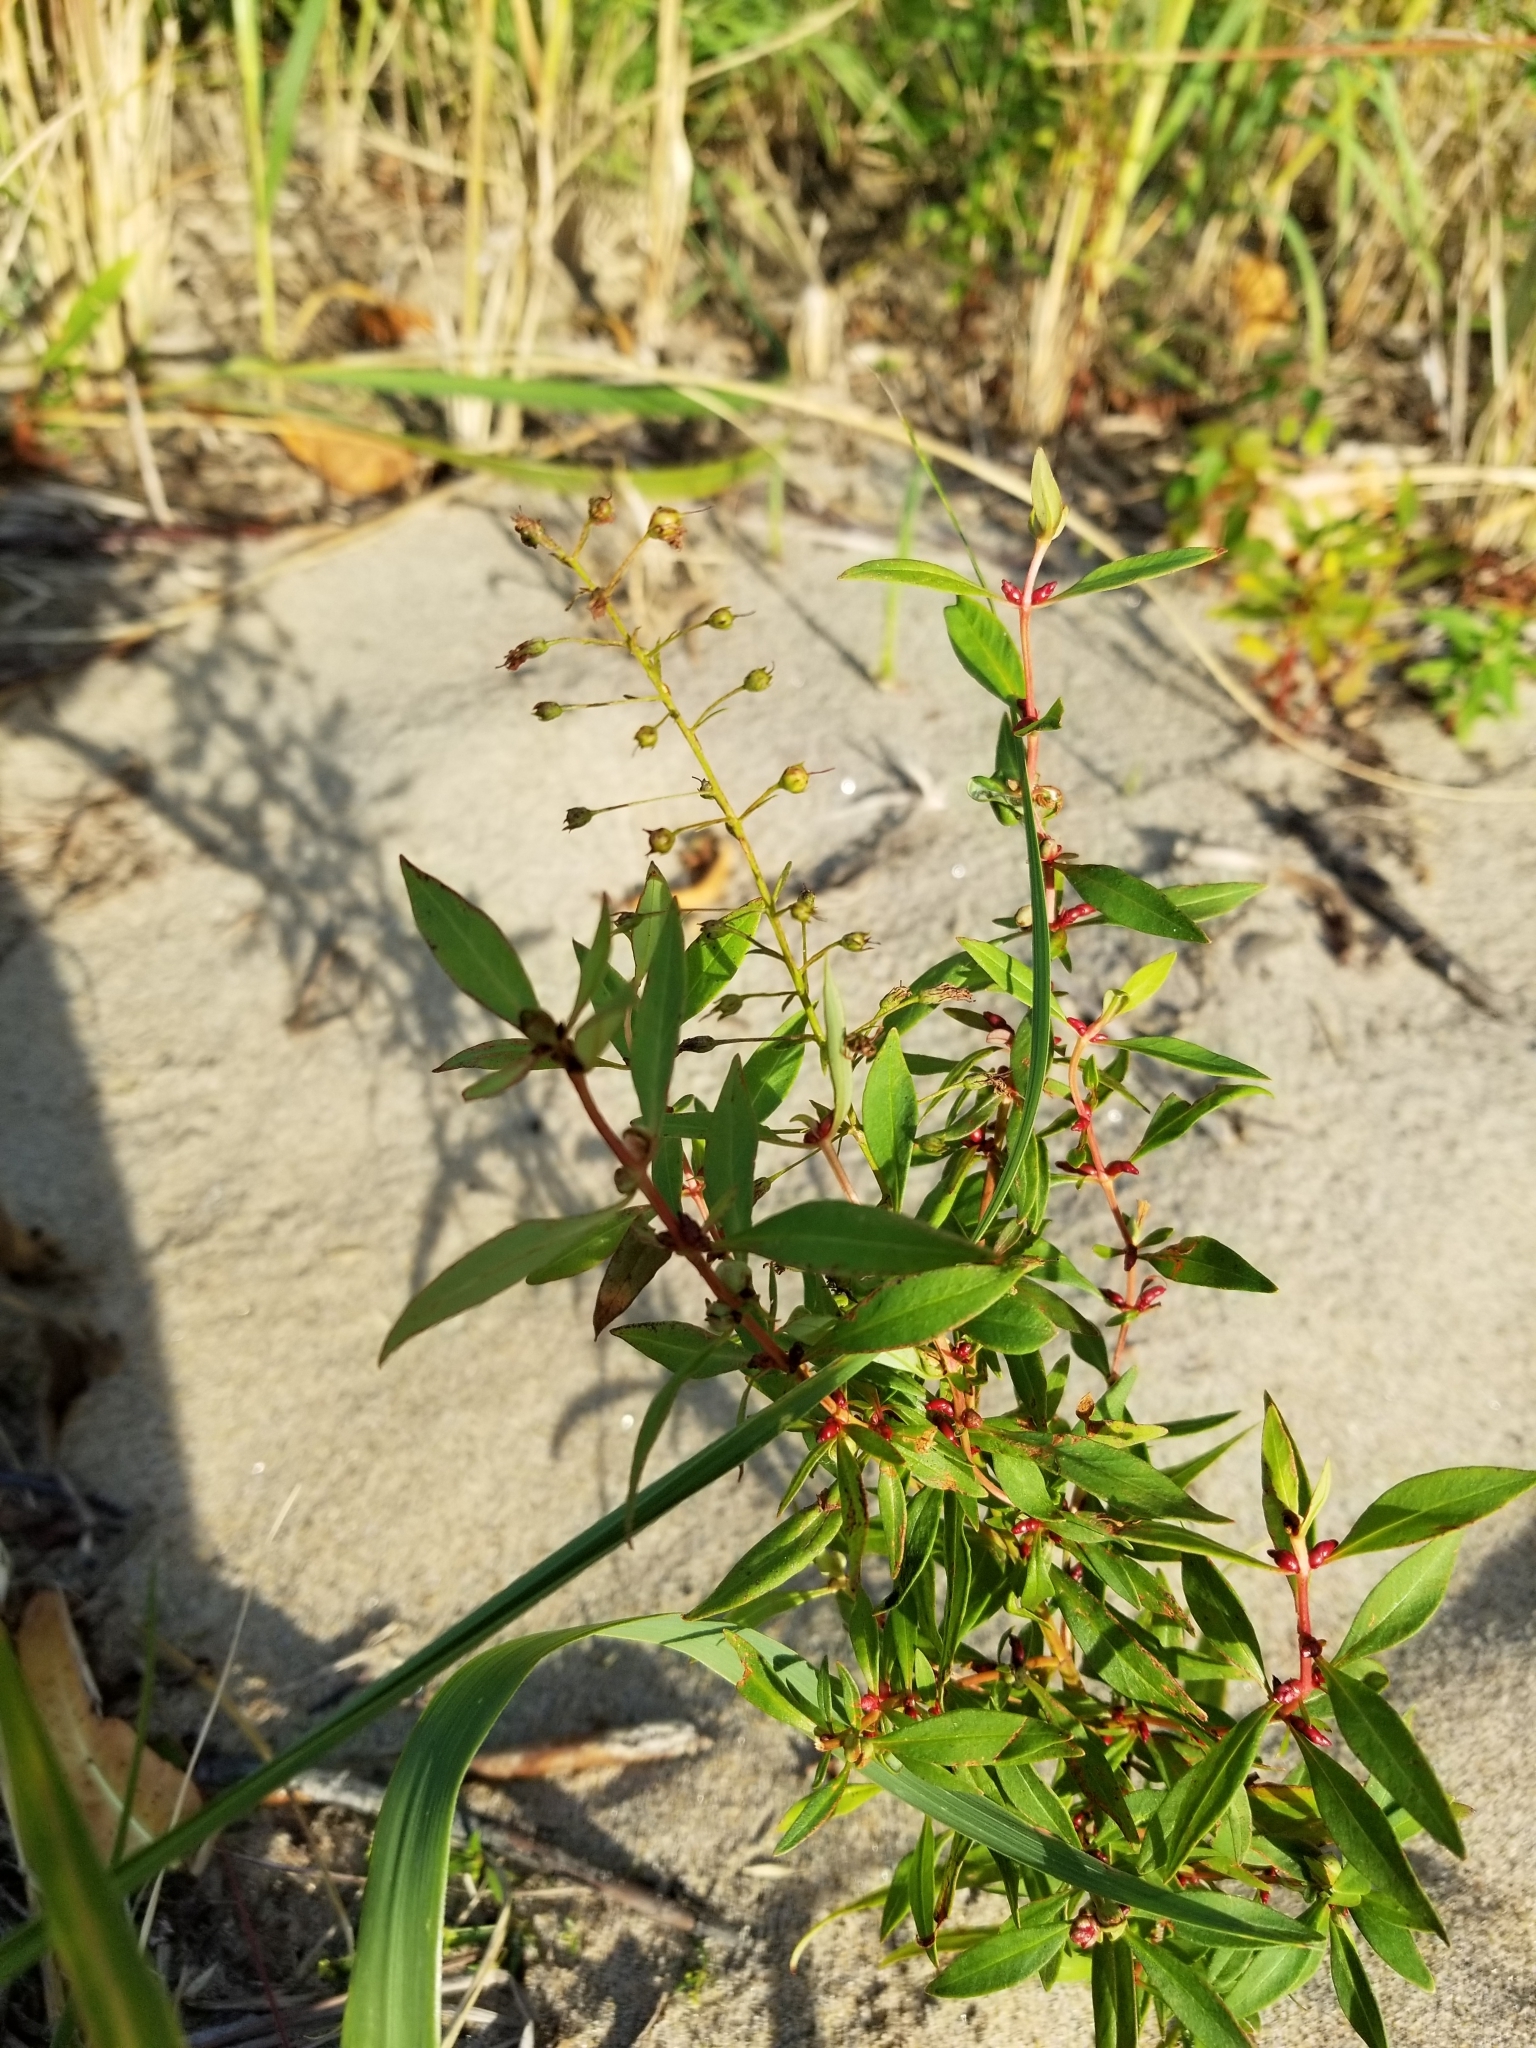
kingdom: Plantae
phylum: Tracheophyta
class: Magnoliopsida
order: Ericales
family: Primulaceae
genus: Lysimachia
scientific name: Lysimachia terrestris
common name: Lake loosestrife
